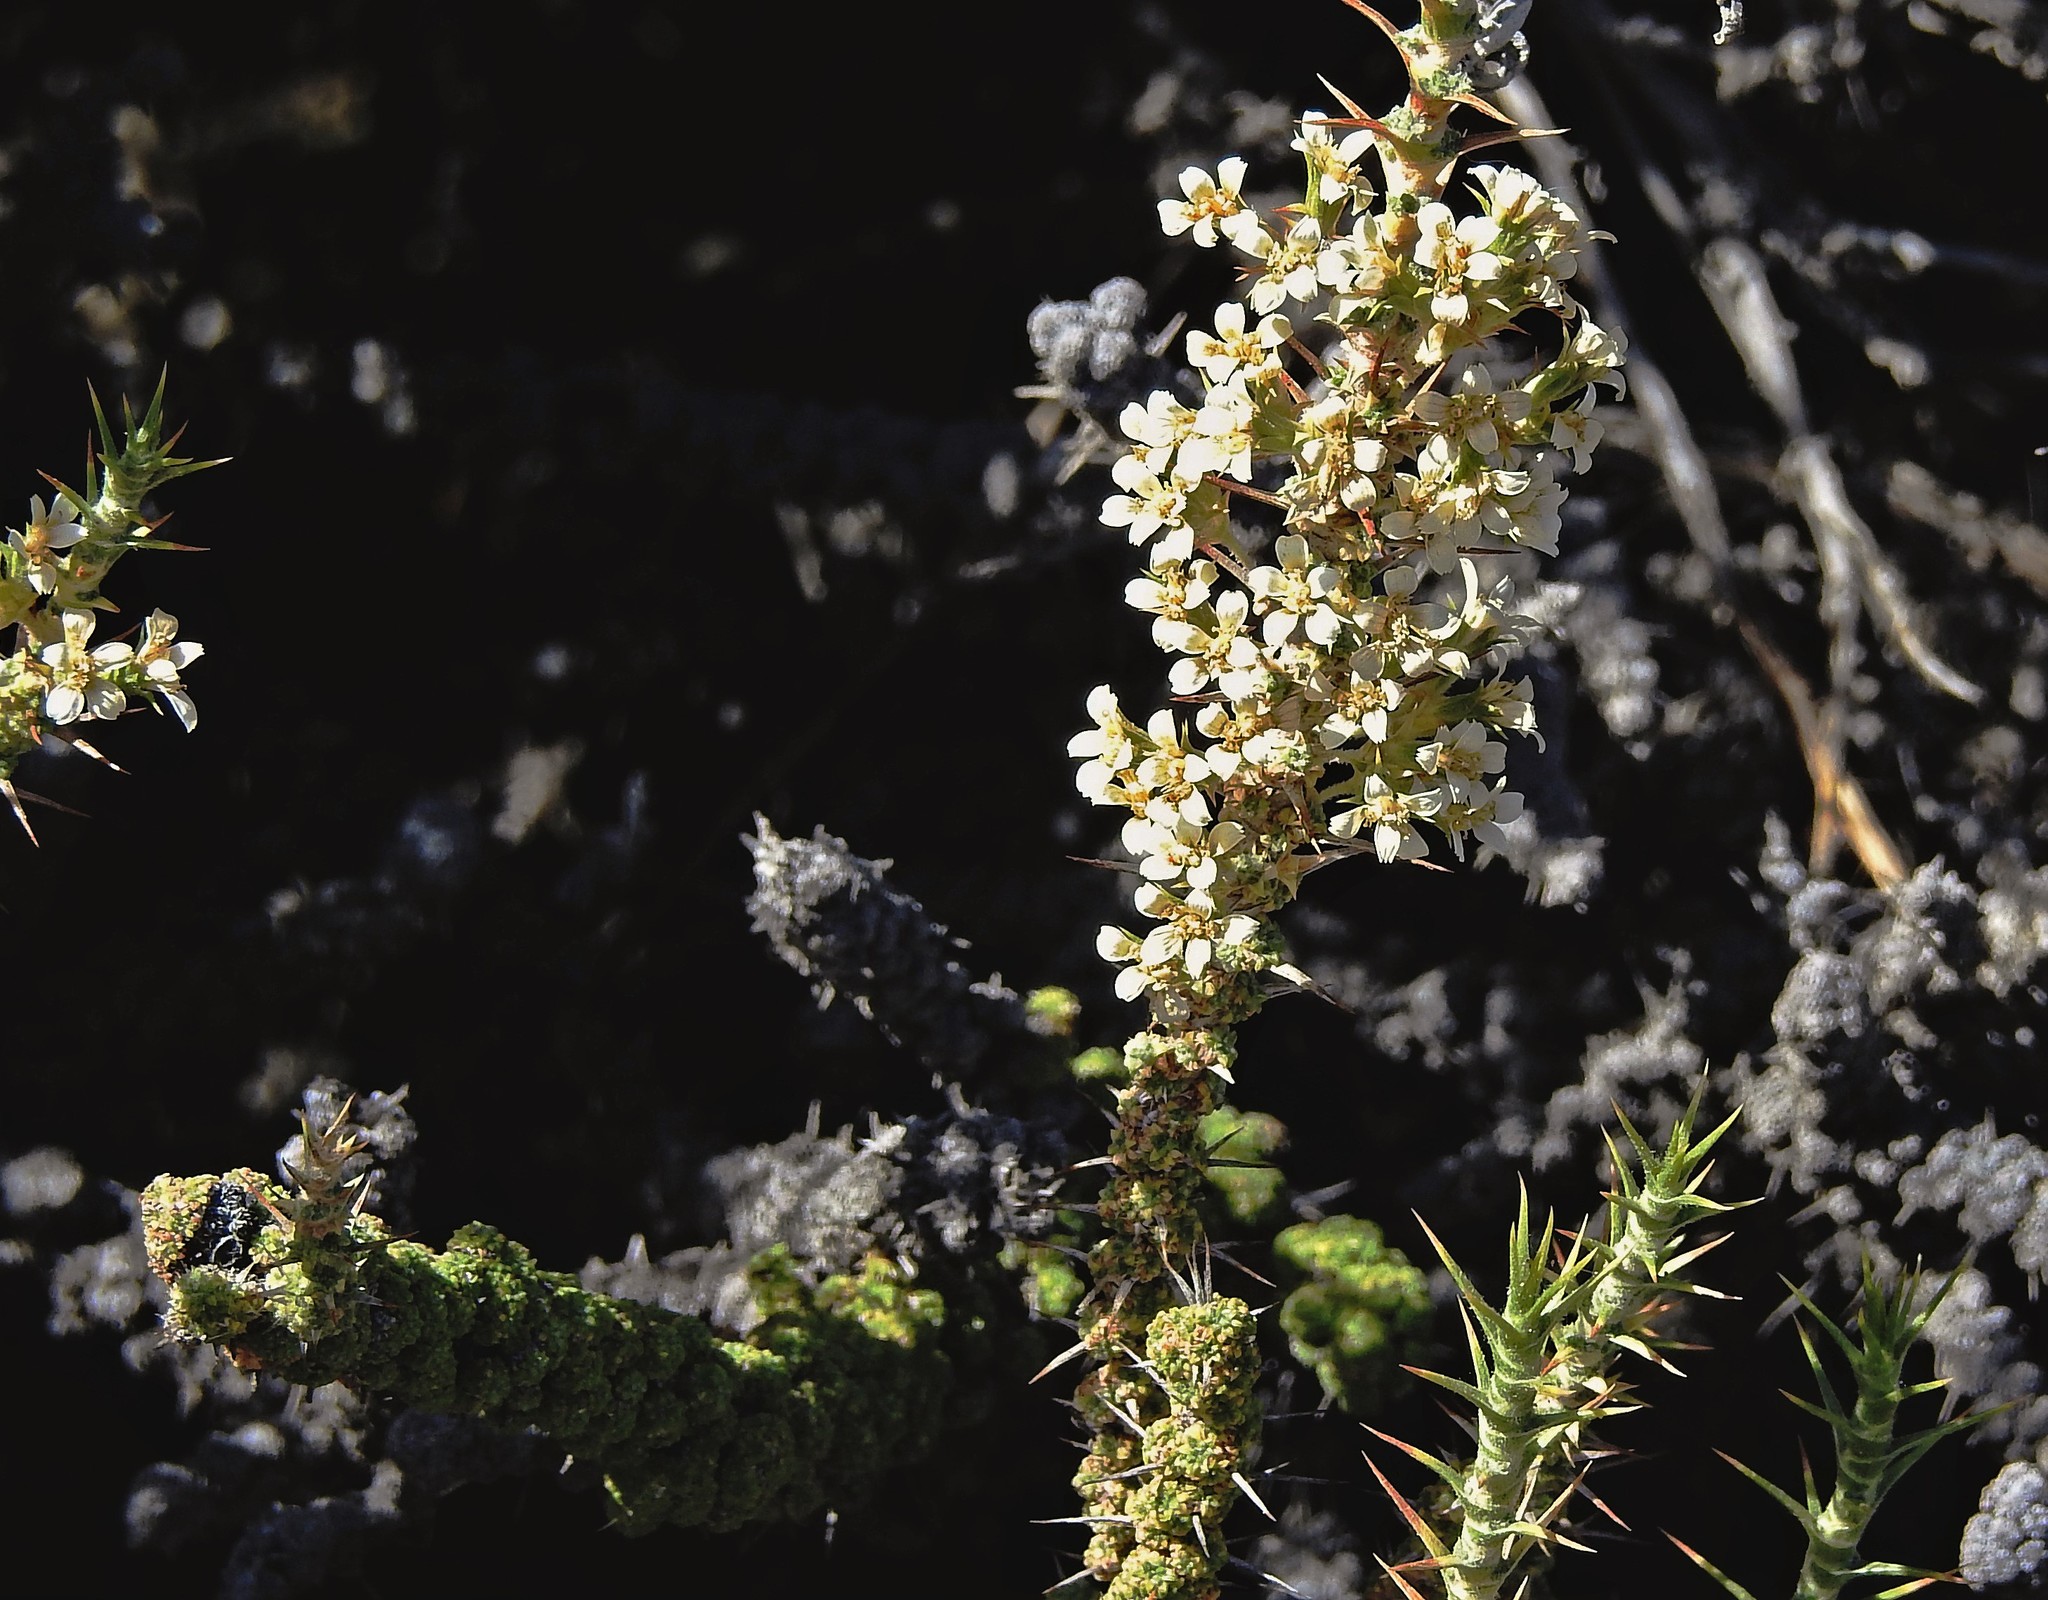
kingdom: Plantae
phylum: Tracheophyta
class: Magnoliopsida
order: Asterales
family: Asteraceae
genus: Nassauvia
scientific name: Nassauvia glomerulosa
